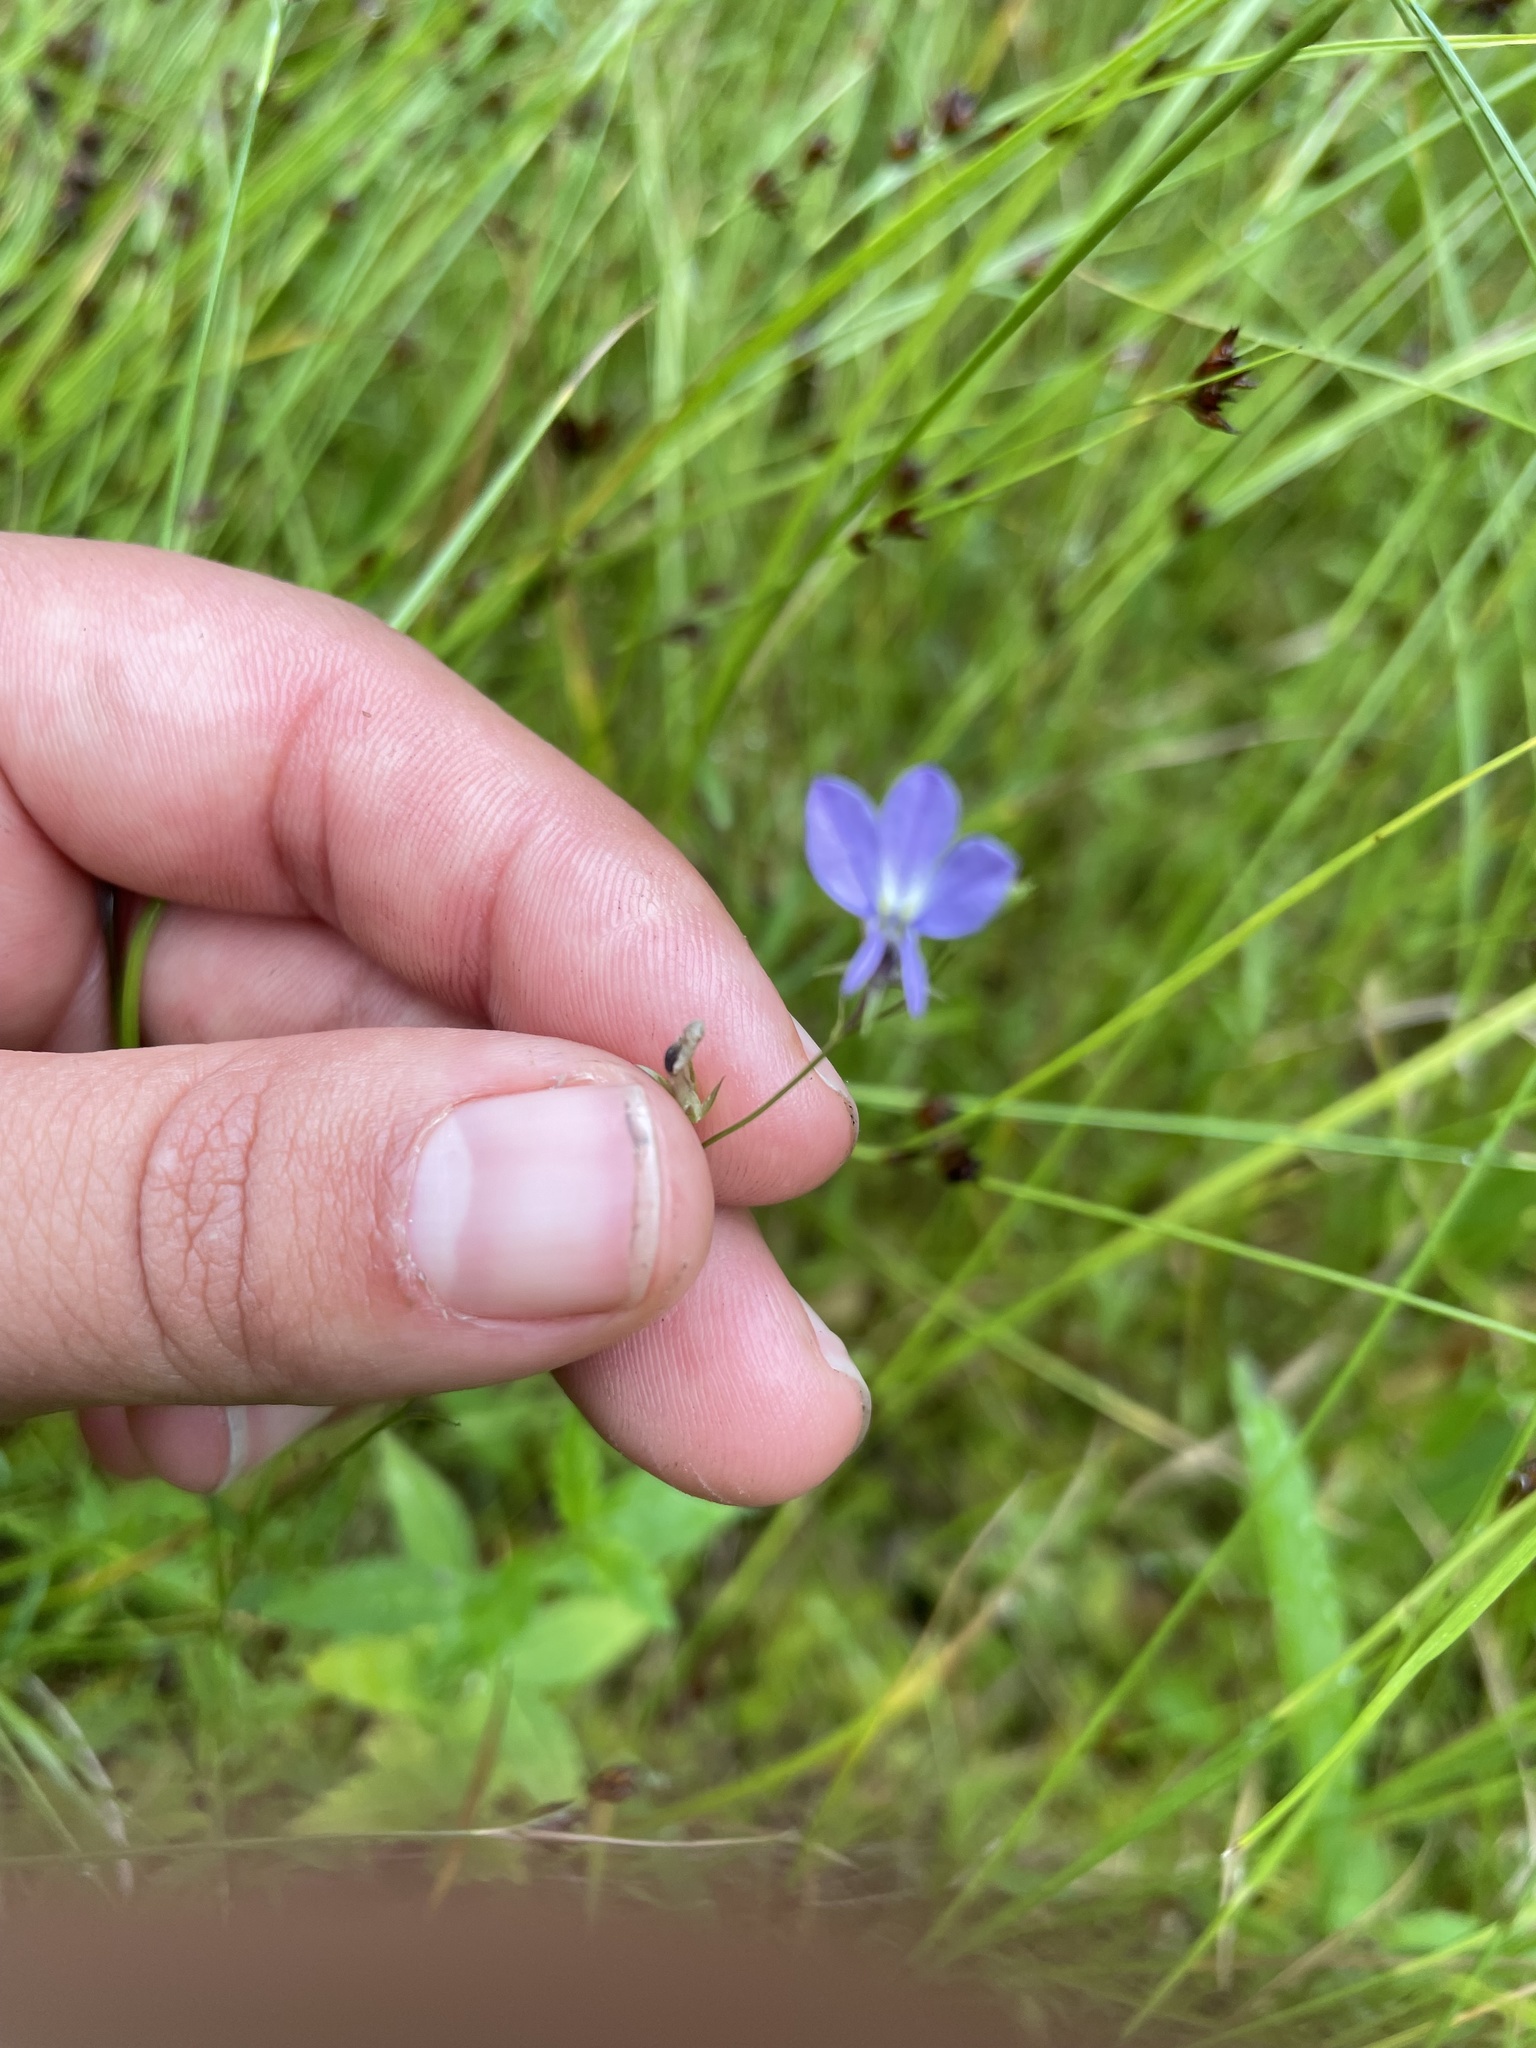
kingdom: Plantae
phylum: Tracheophyta
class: Magnoliopsida
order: Asterales
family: Campanulaceae
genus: Lobelia
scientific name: Lobelia nuttallii
